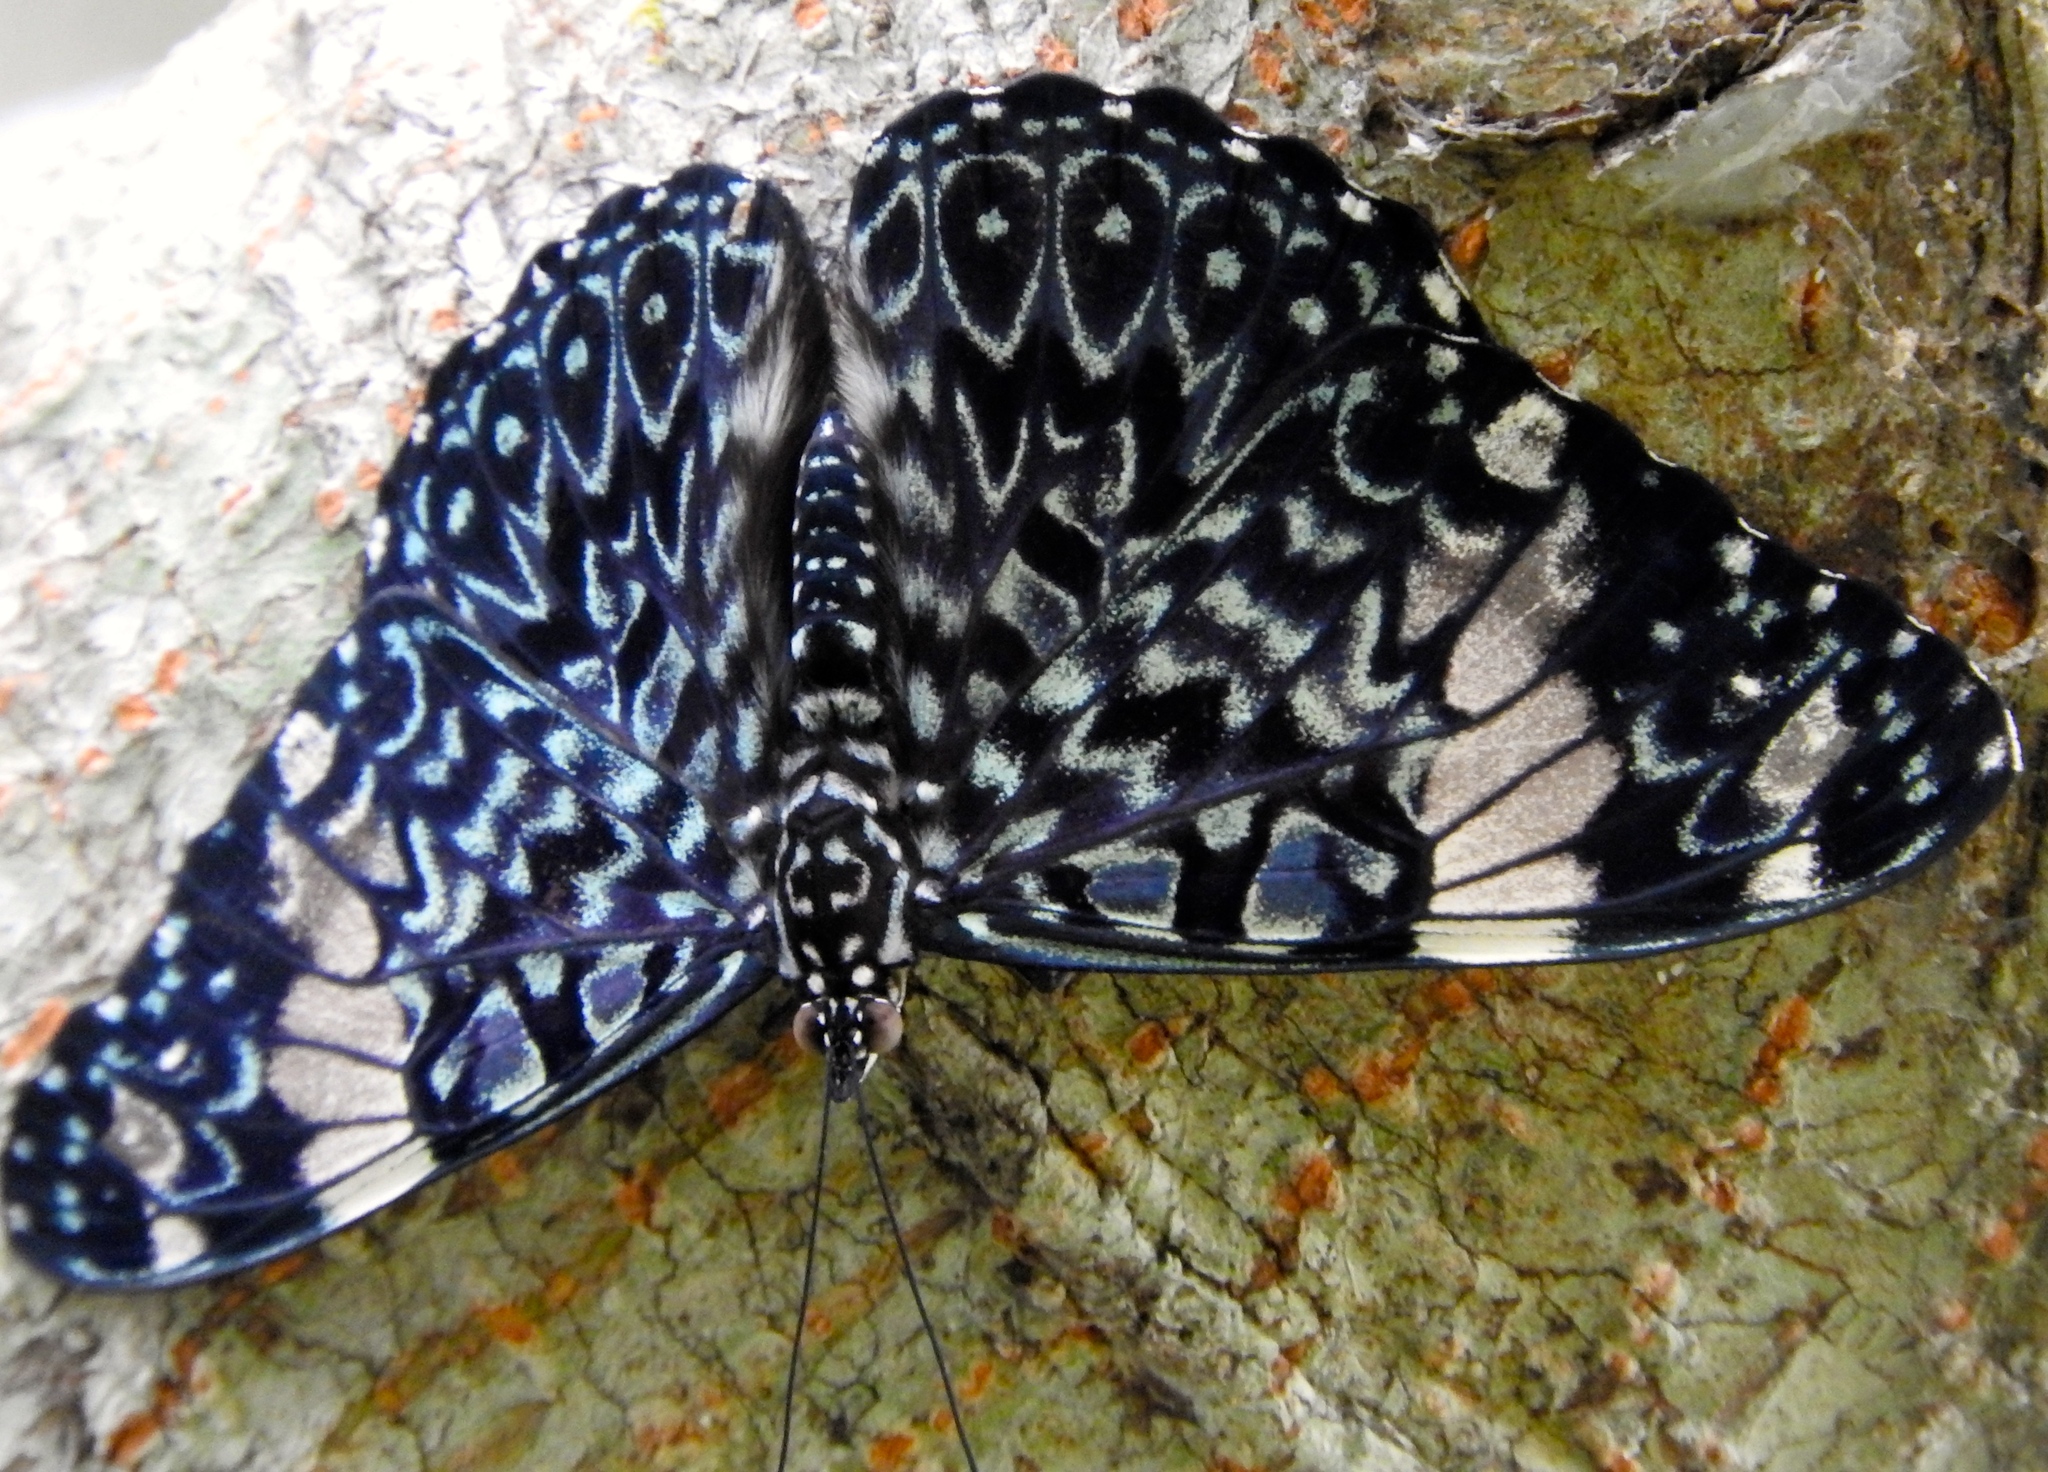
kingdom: Animalia
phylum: Arthropoda
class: Insecta
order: Lepidoptera
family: Nymphalidae
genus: Hamadryas
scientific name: Hamadryas amphinome
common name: Red cracker
